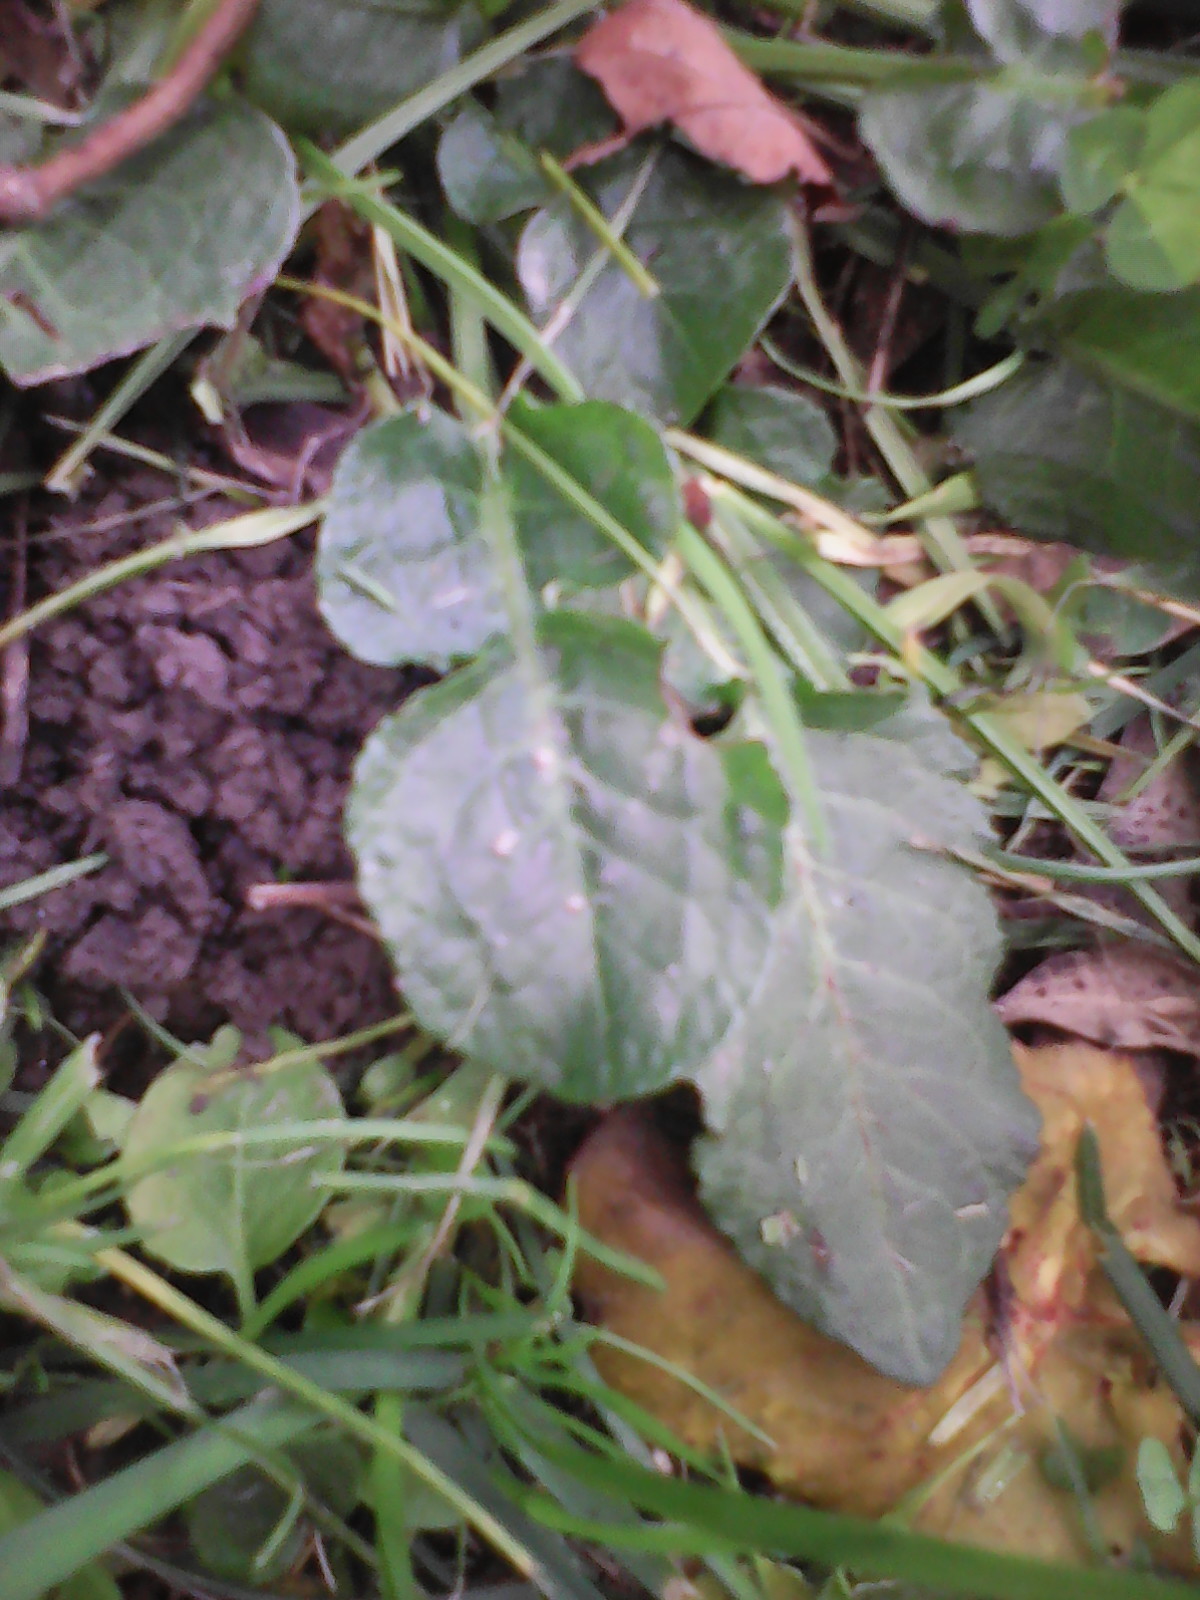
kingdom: Plantae
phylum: Tracheophyta
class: Magnoliopsida
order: Caryophyllales
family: Polygonaceae
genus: Rumex
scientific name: Rumex pulcher
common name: Fiddle dock
